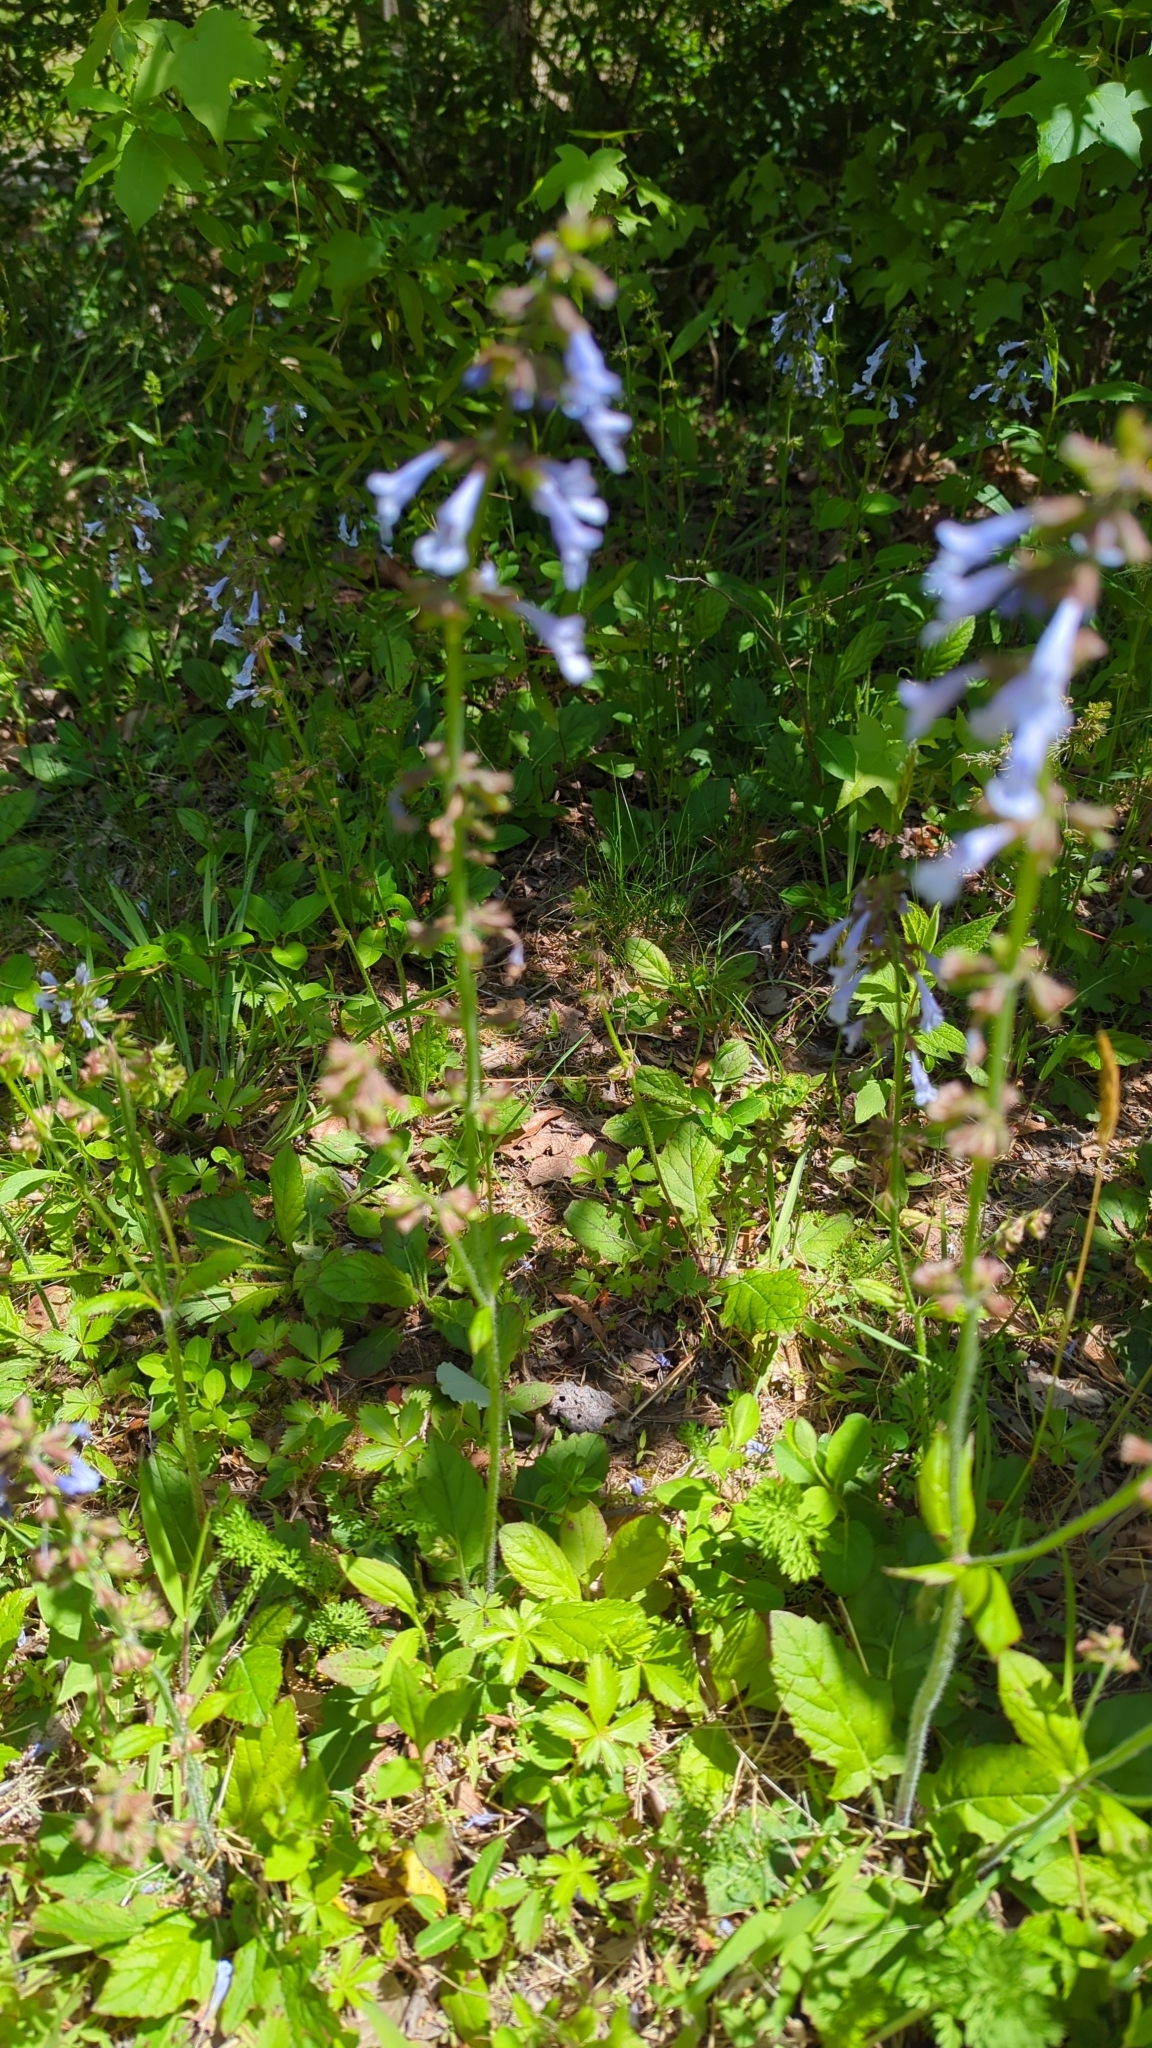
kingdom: Plantae
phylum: Tracheophyta
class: Magnoliopsida
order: Lamiales
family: Lamiaceae
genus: Salvia
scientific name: Salvia lyrata
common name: Cancerweed
